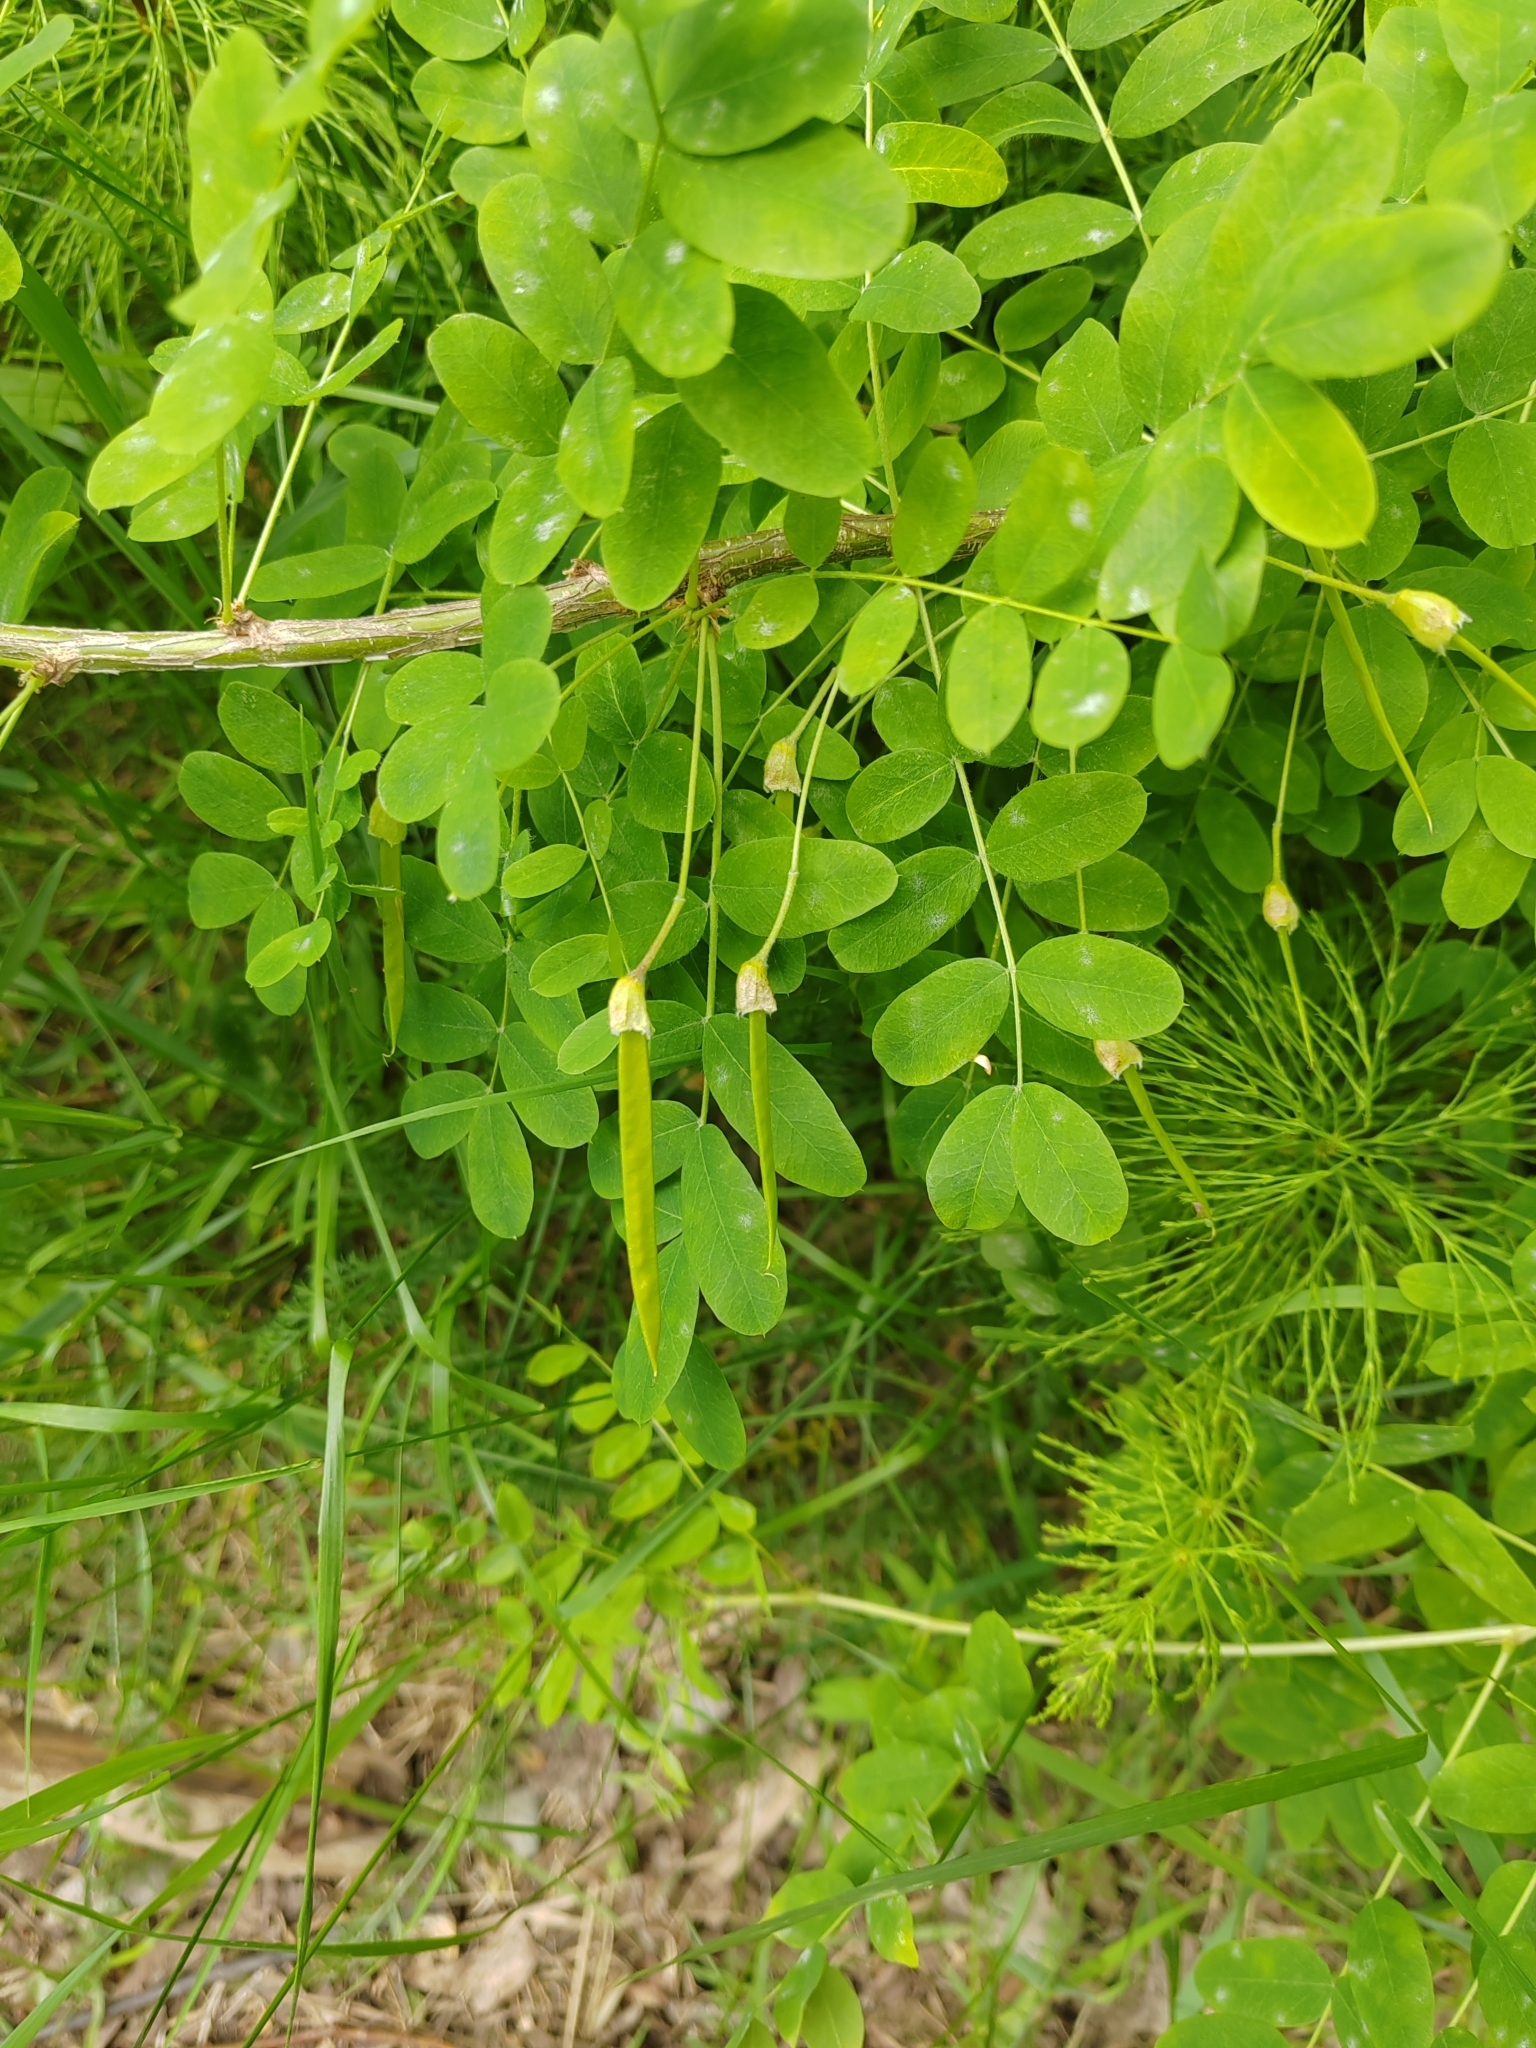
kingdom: Plantae
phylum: Tracheophyta
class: Magnoliopsida
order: Fabales
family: Fabaceae
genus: Caragana
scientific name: Caragana arborescens
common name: Siberian peashrub
